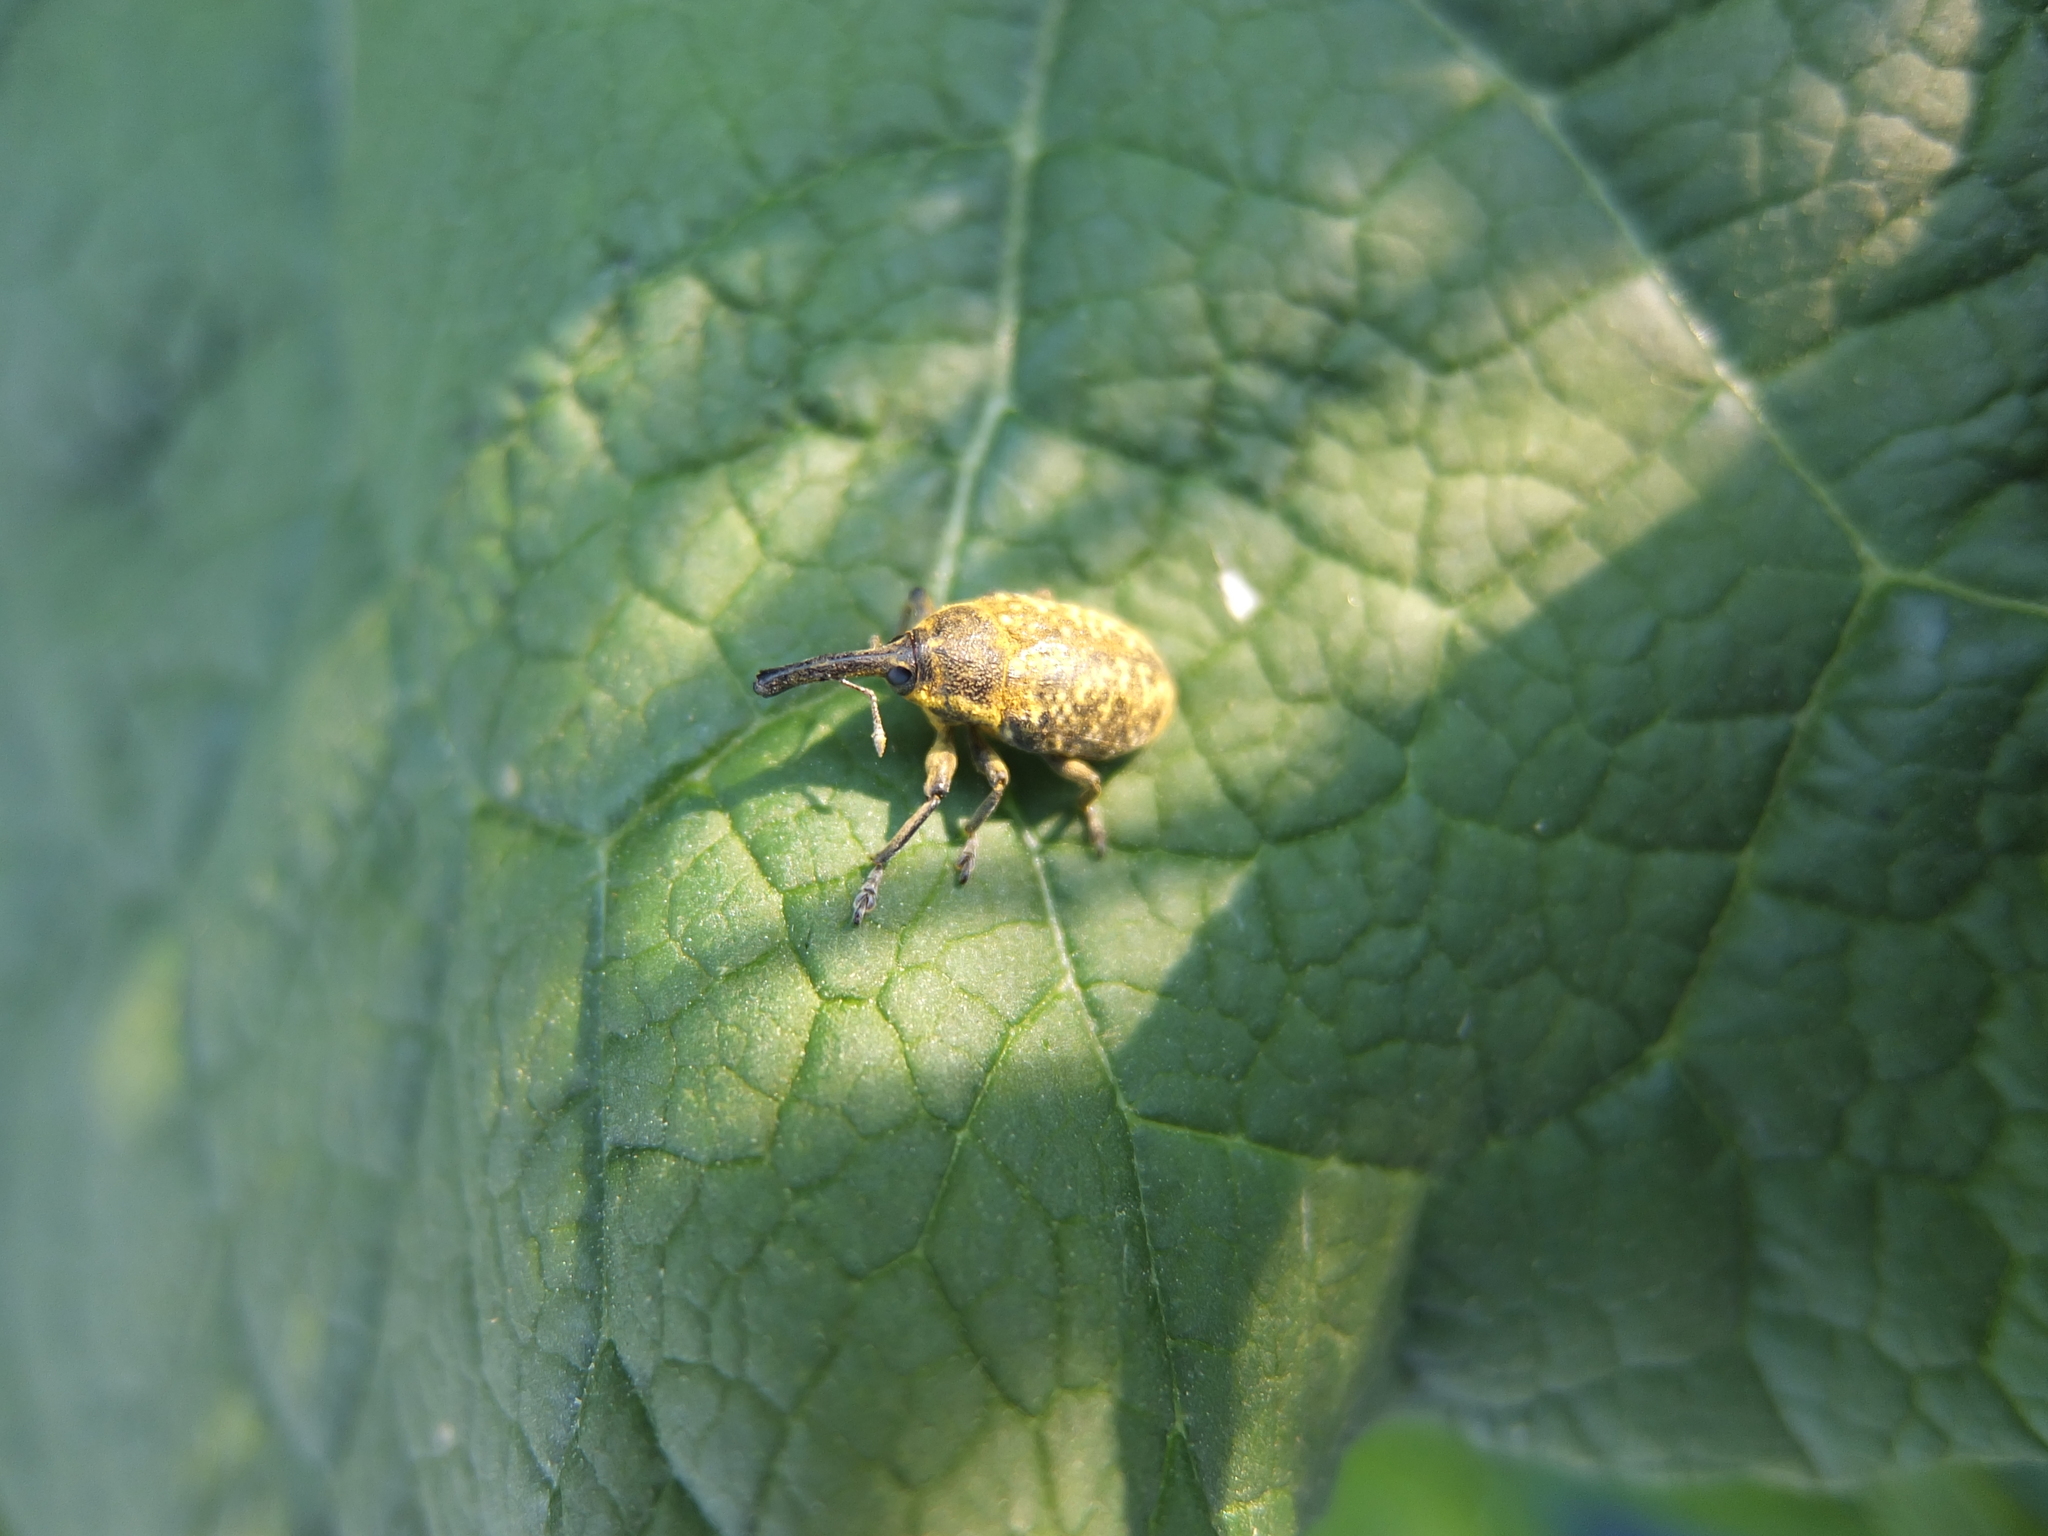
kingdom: Animalia
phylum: Arthropoda
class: Insecta
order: Coleoptera
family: Curculionidae
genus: Larinus
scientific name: Larinus sturnus
